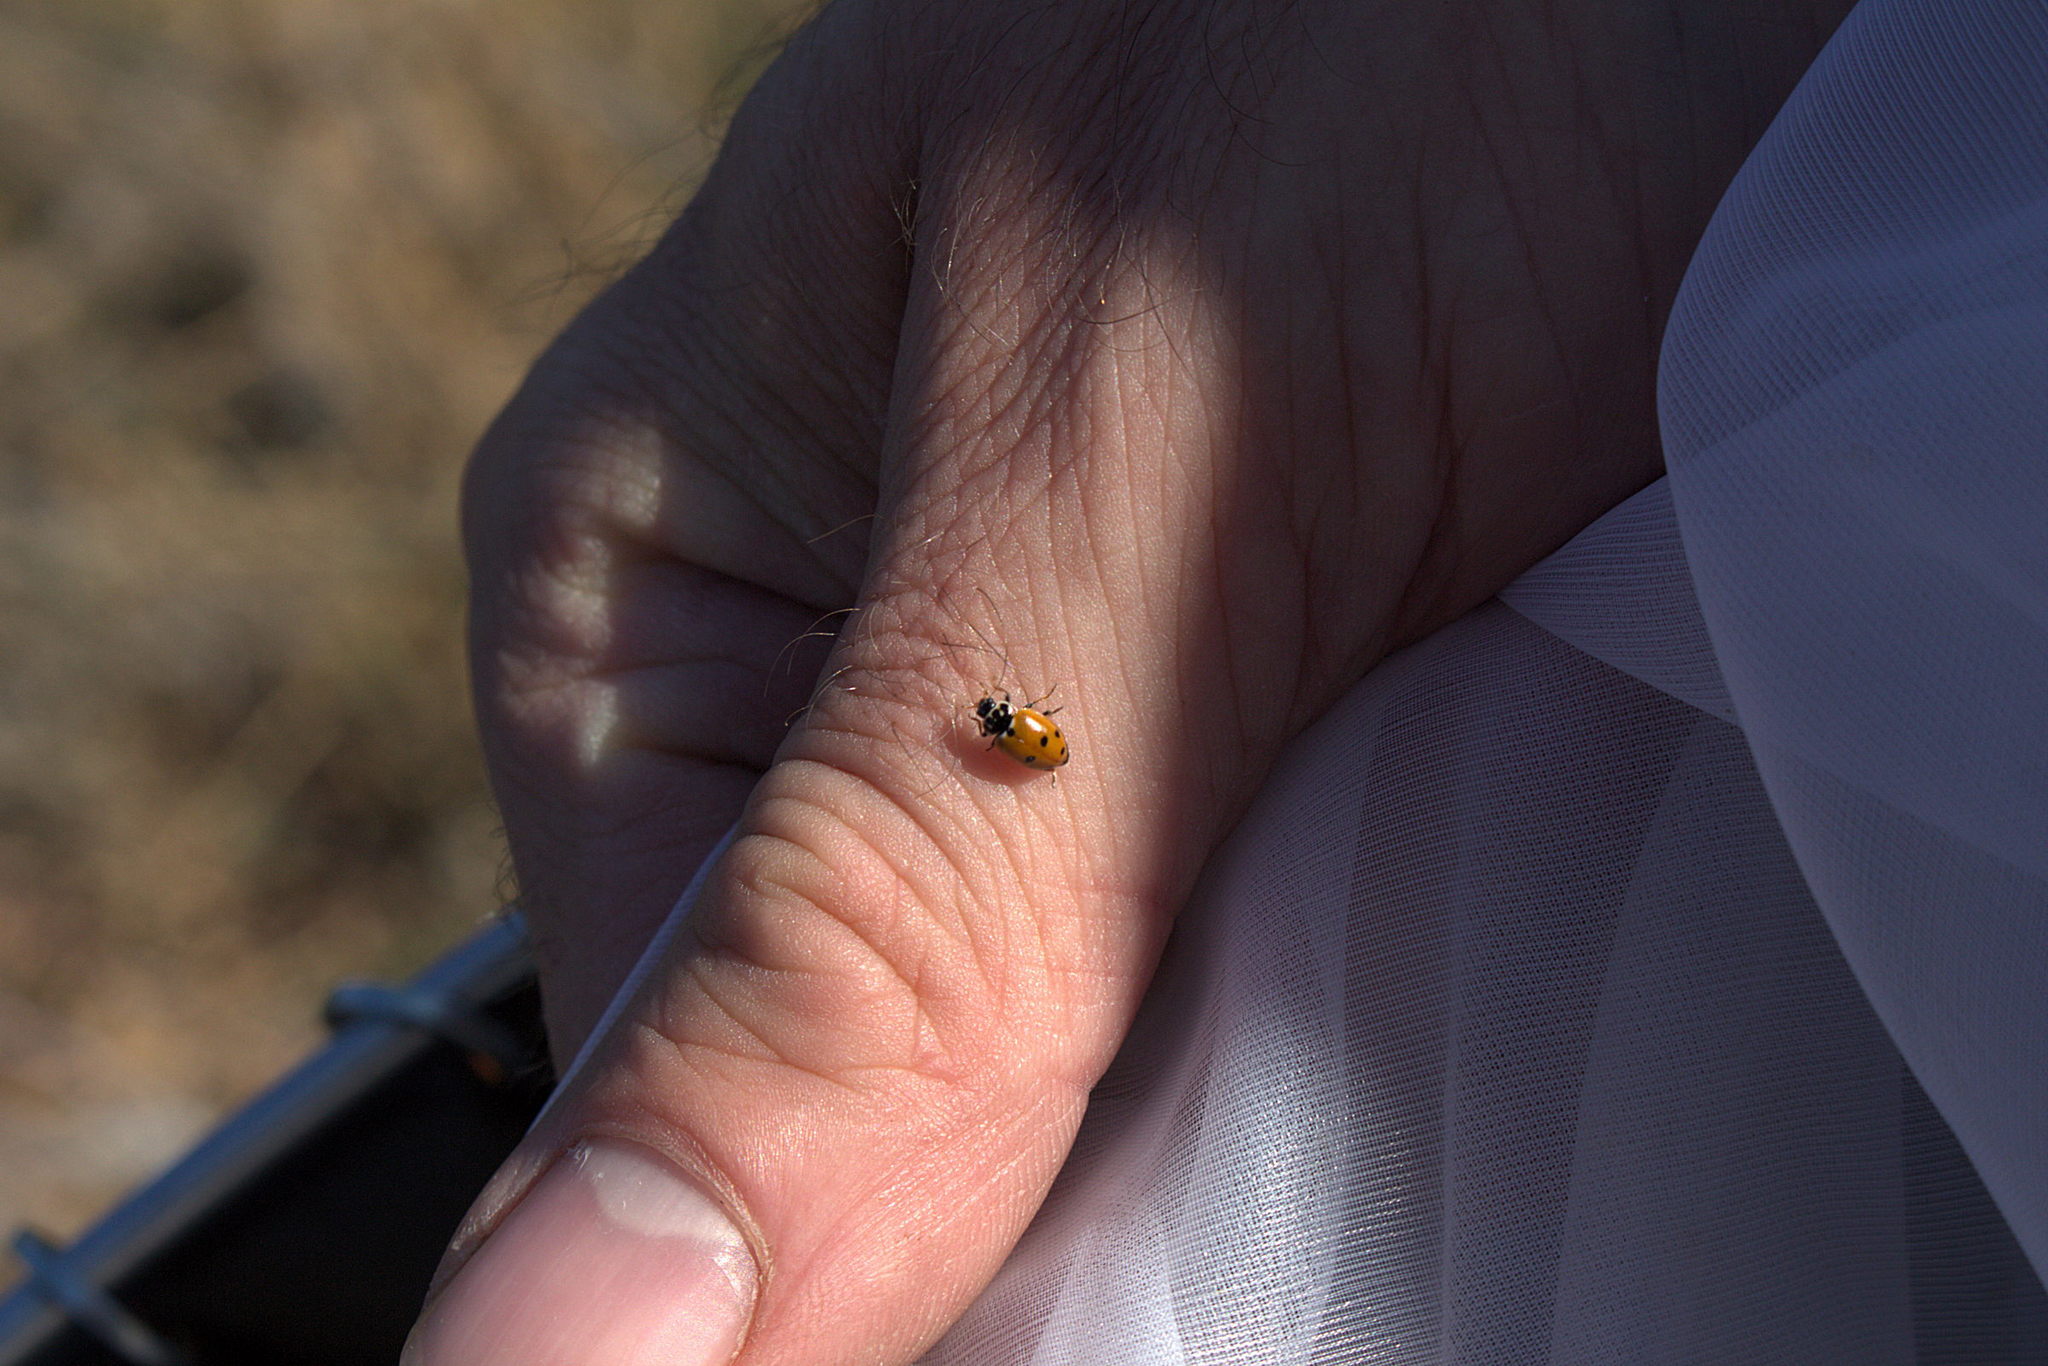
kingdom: Animalia
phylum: Arthropoda
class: Insecta
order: Coleoptera
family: Coccinellidae
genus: Hippodamia
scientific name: Hippodamia variegata
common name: Ladybird beetle
